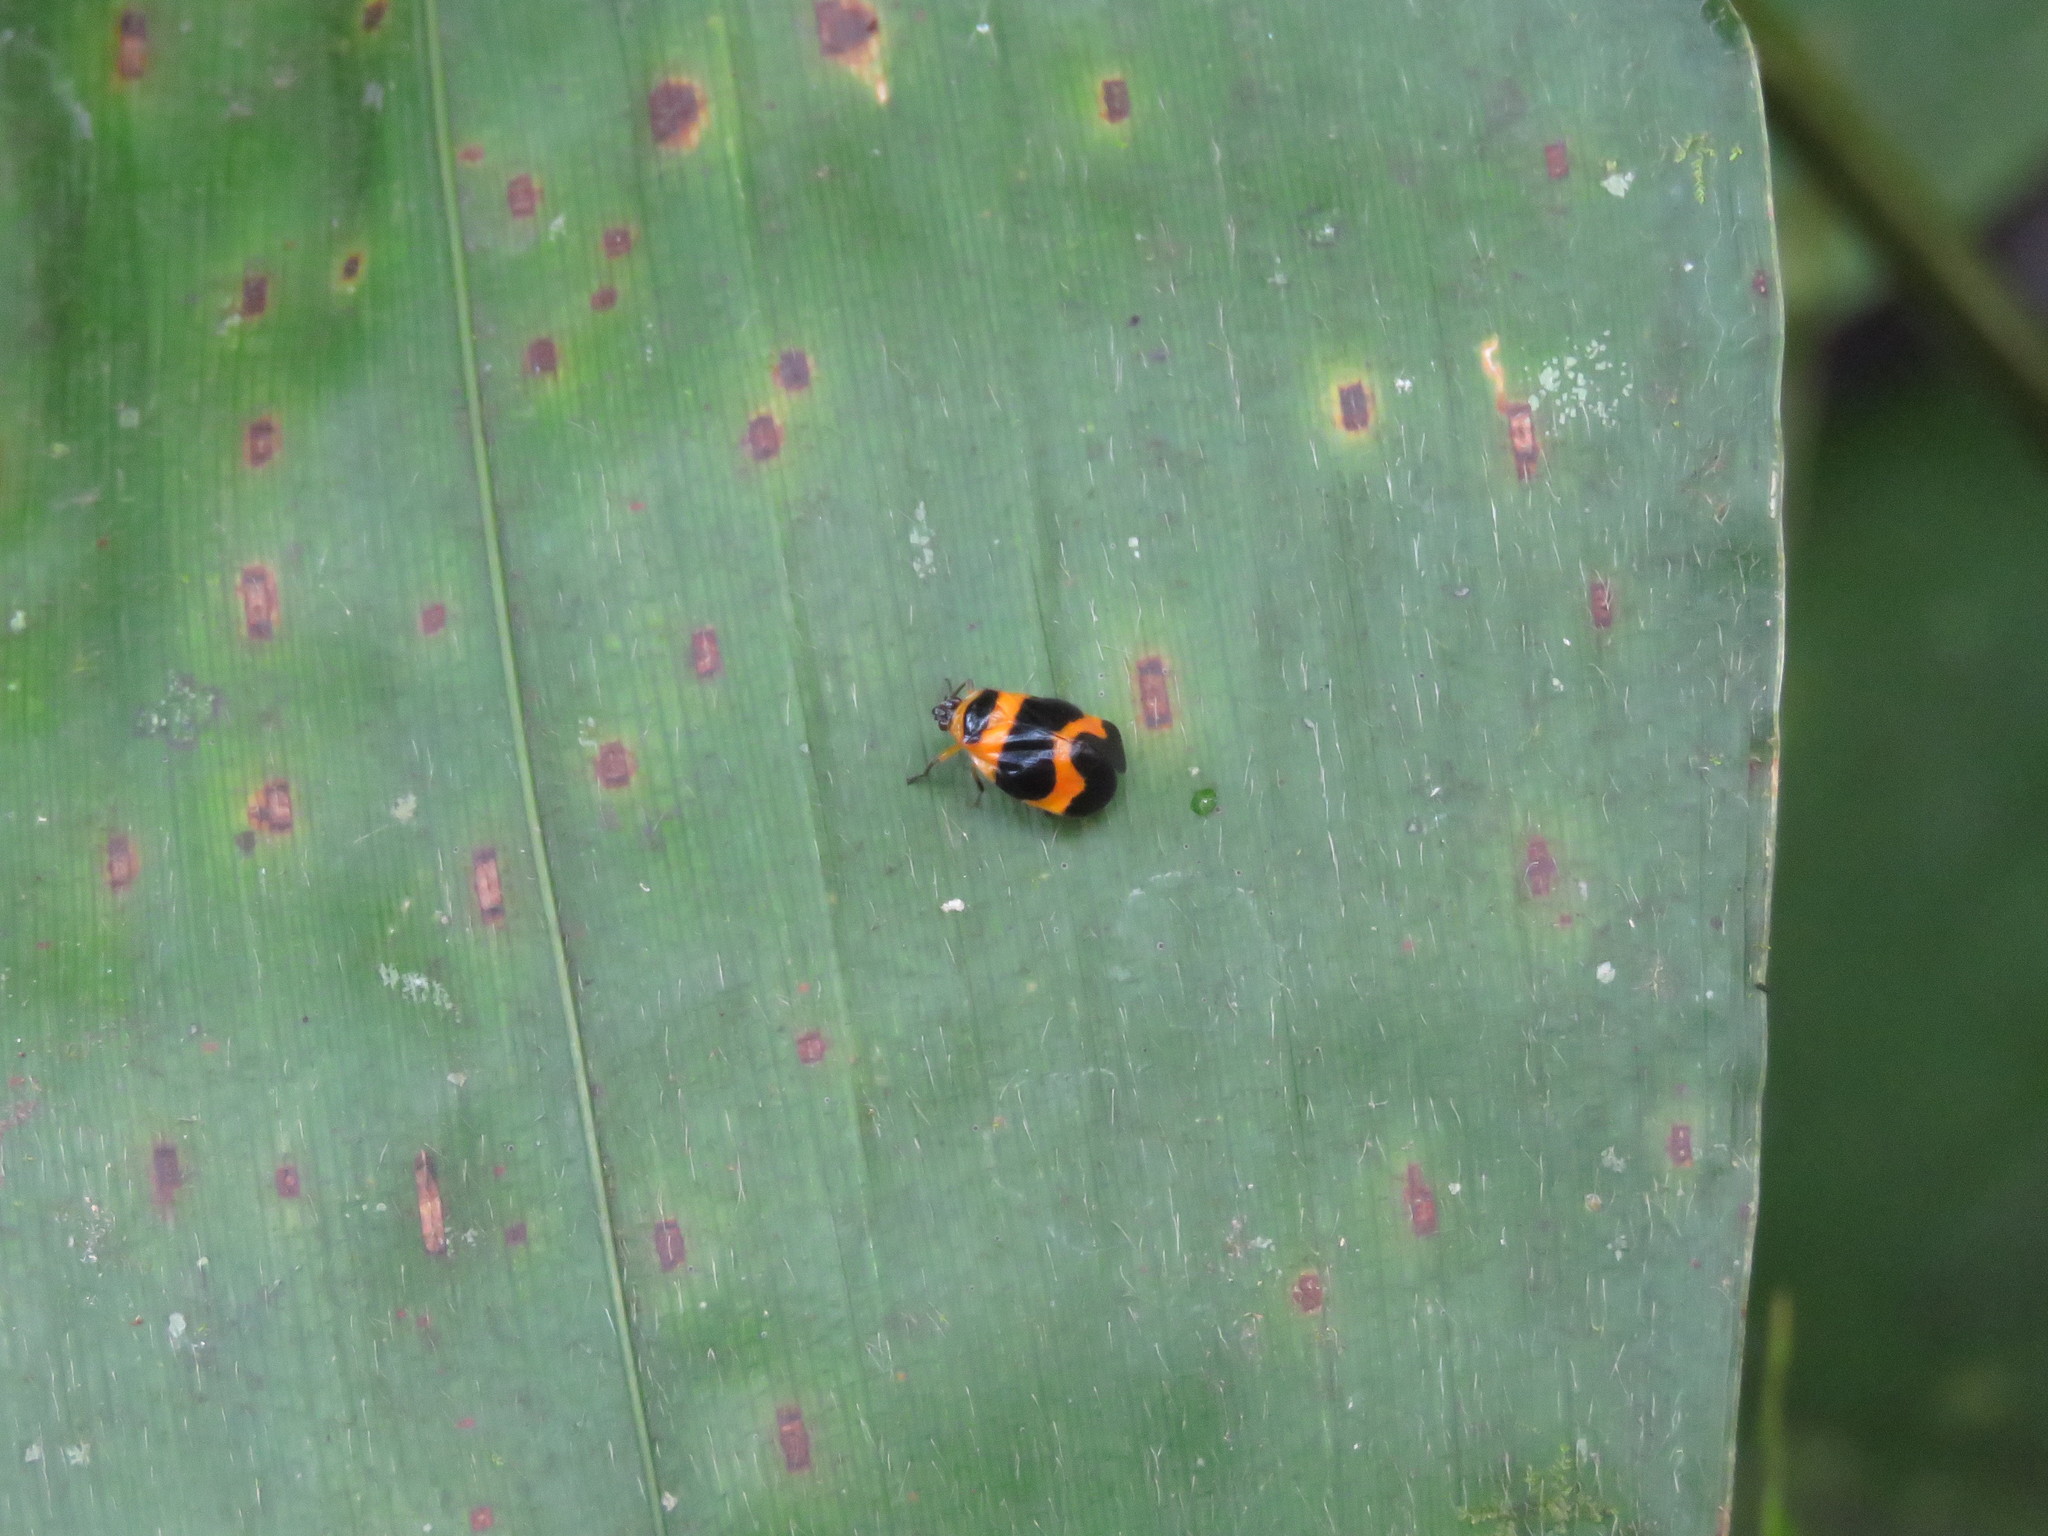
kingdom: Animalia
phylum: Arthropoda
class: Insecta
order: Hemiptera
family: Cercopidae
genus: Tropidorhinella
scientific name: Tropidorhinella onorei
